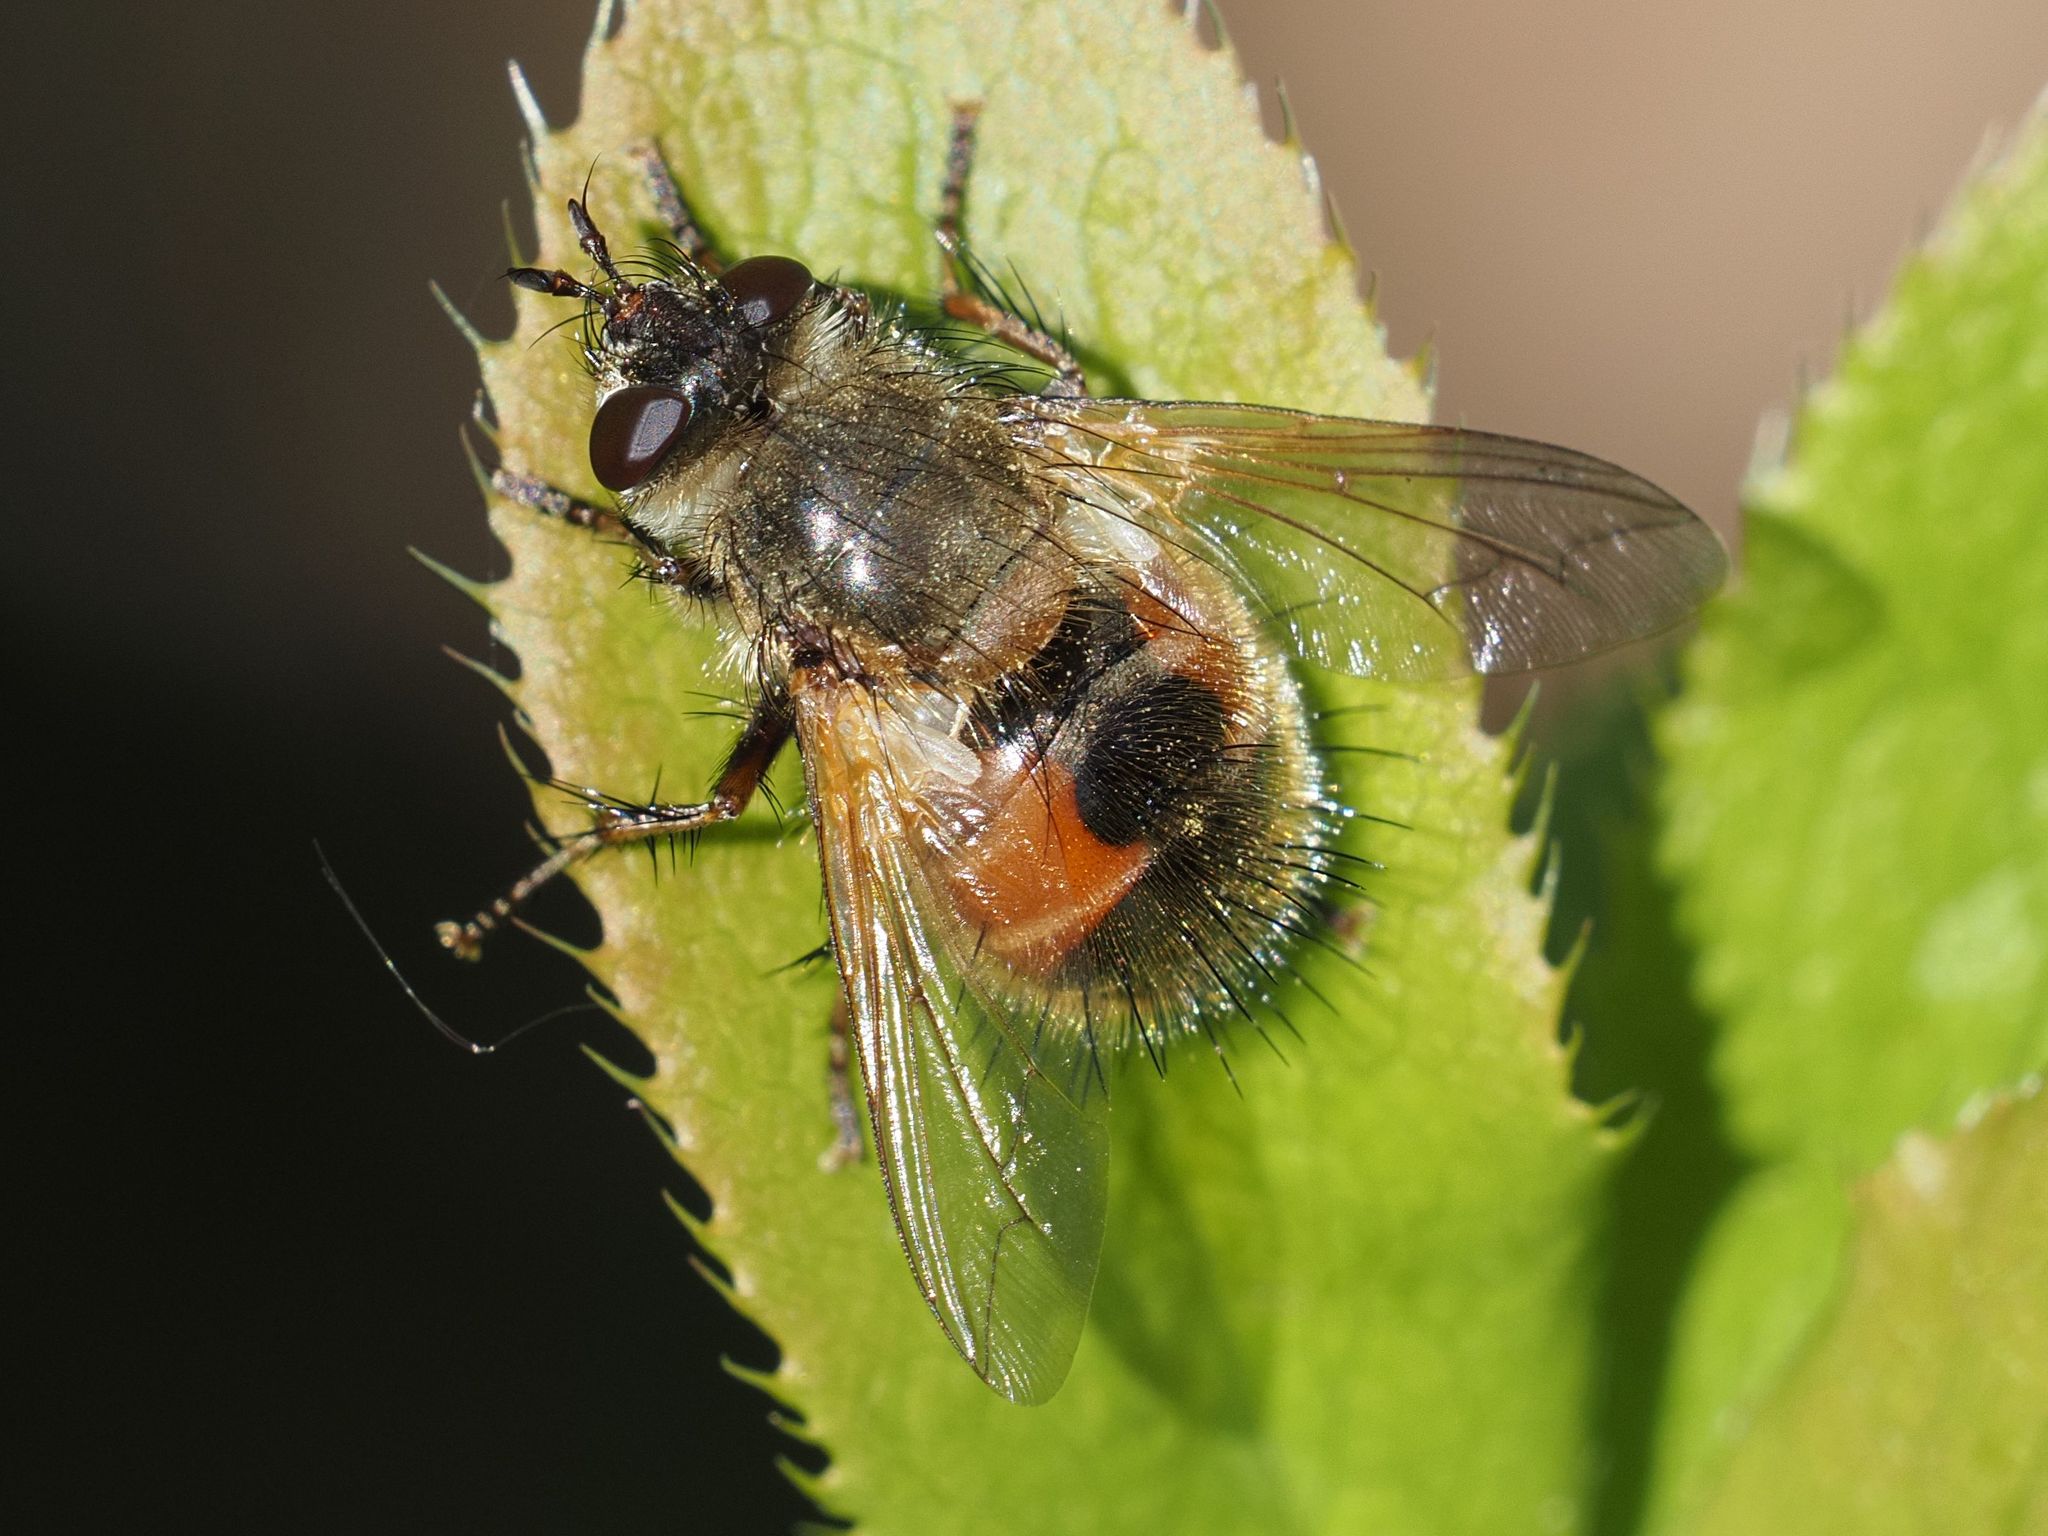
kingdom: Animalia
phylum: Arthropoda
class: Insecta
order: Diptera
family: Tachinidae
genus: Tachina
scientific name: Tachina lurida
